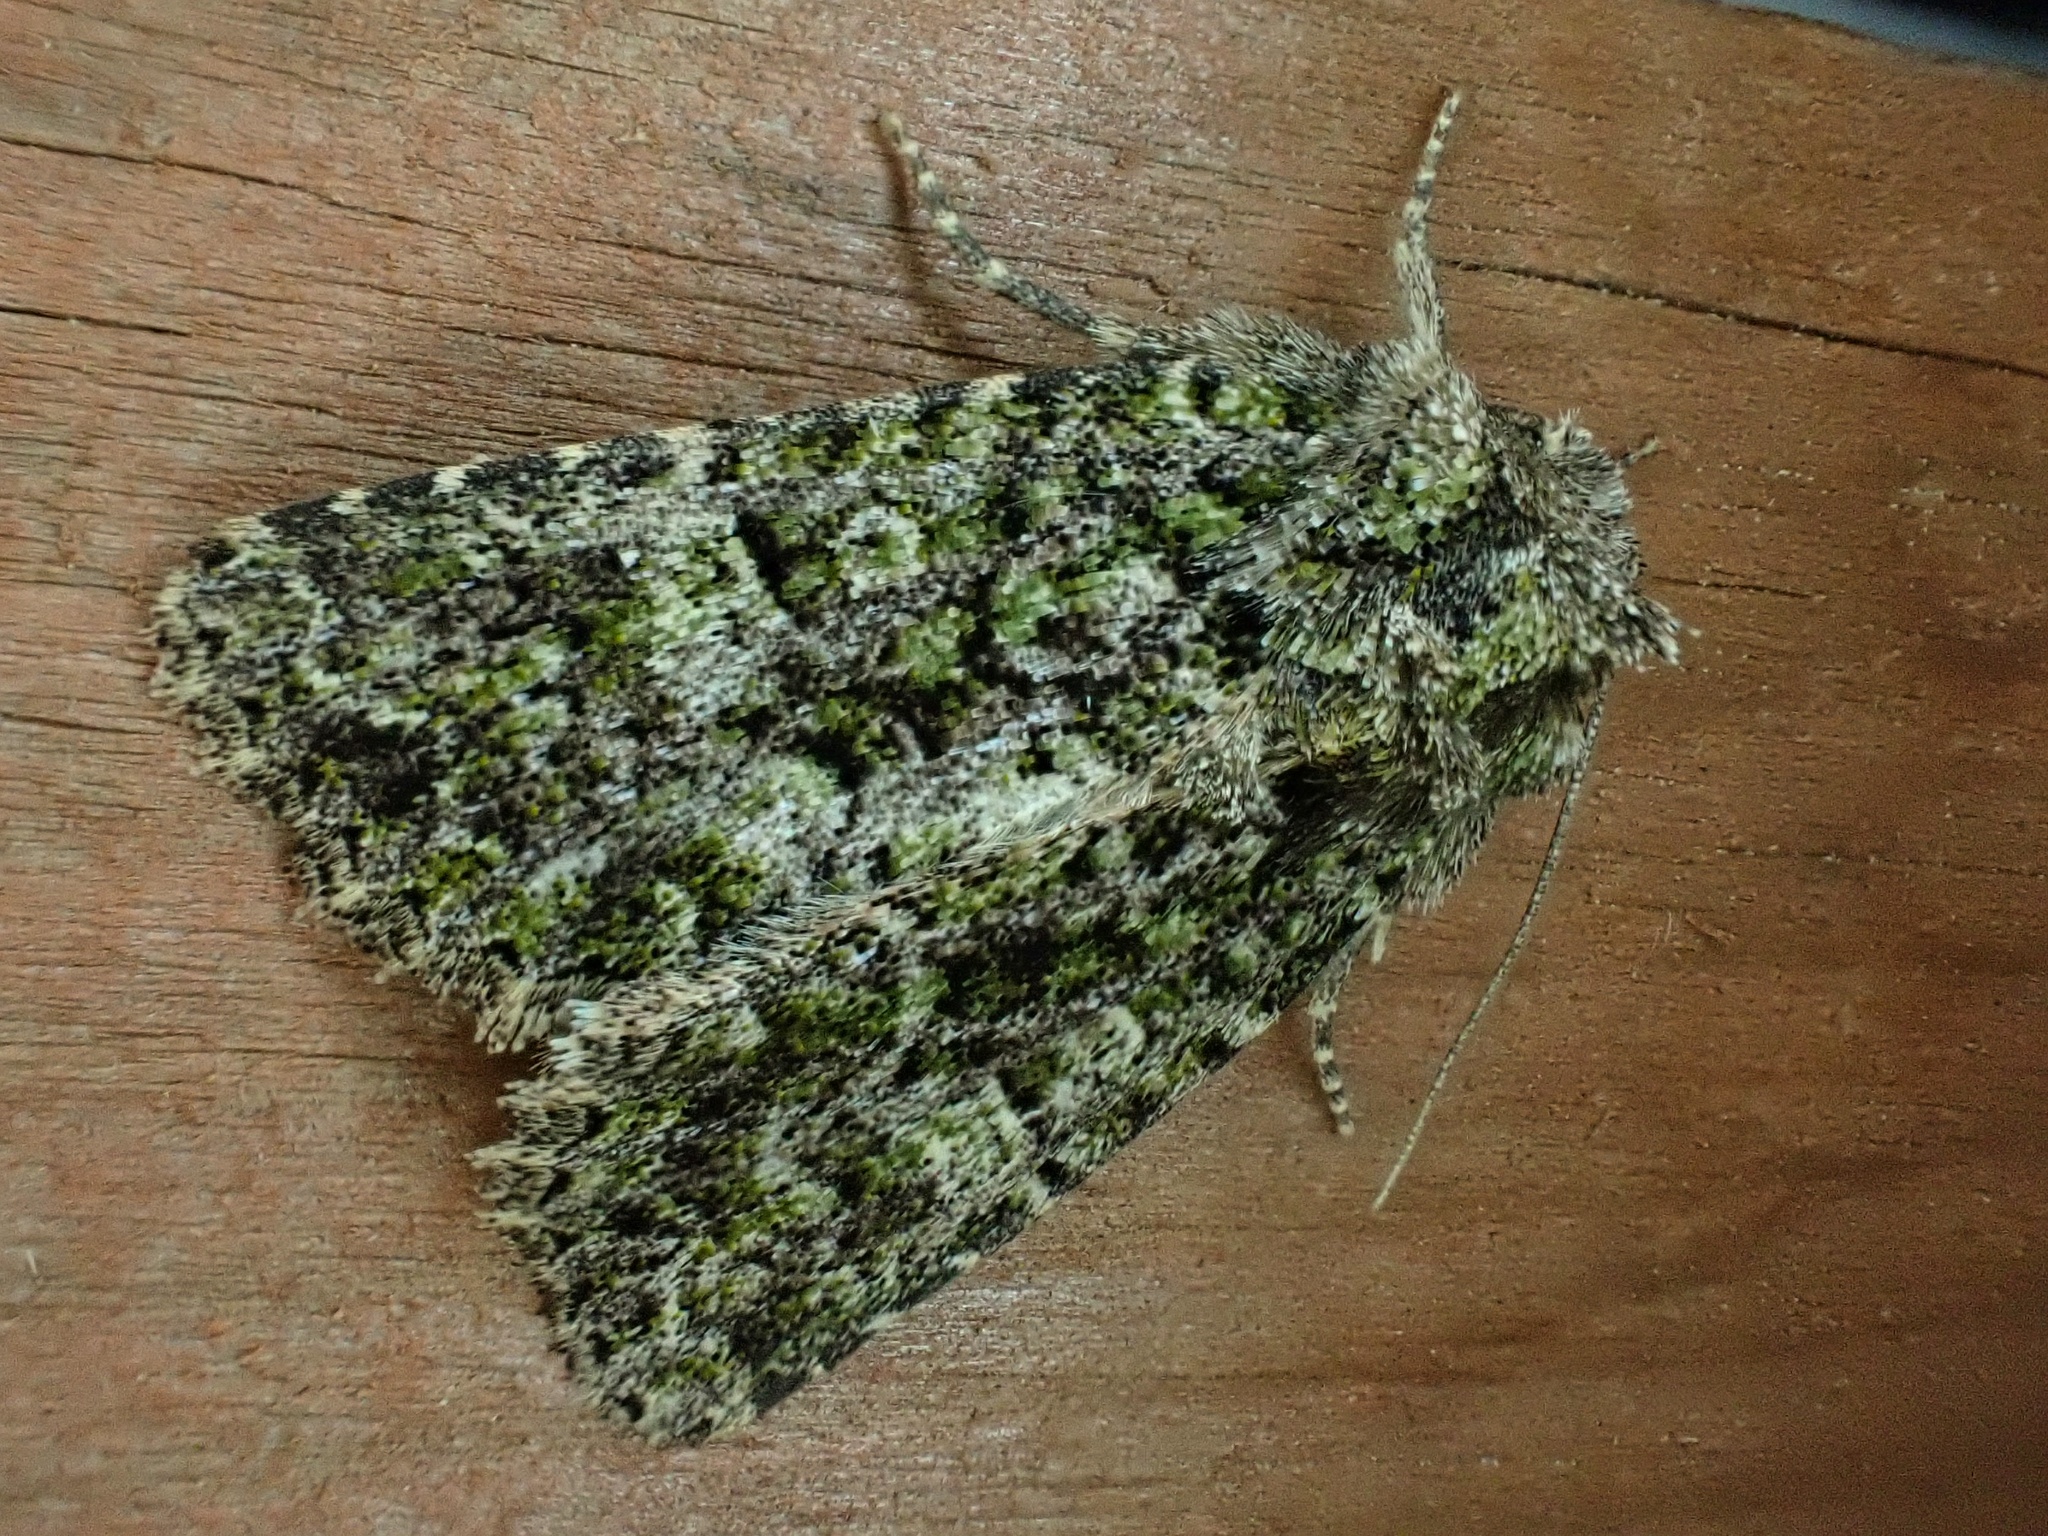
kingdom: Animalia
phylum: Arthropoda
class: Insecta
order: Lepidoptera
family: Noctuidae
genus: Aseptis
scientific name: Aseptis marina
